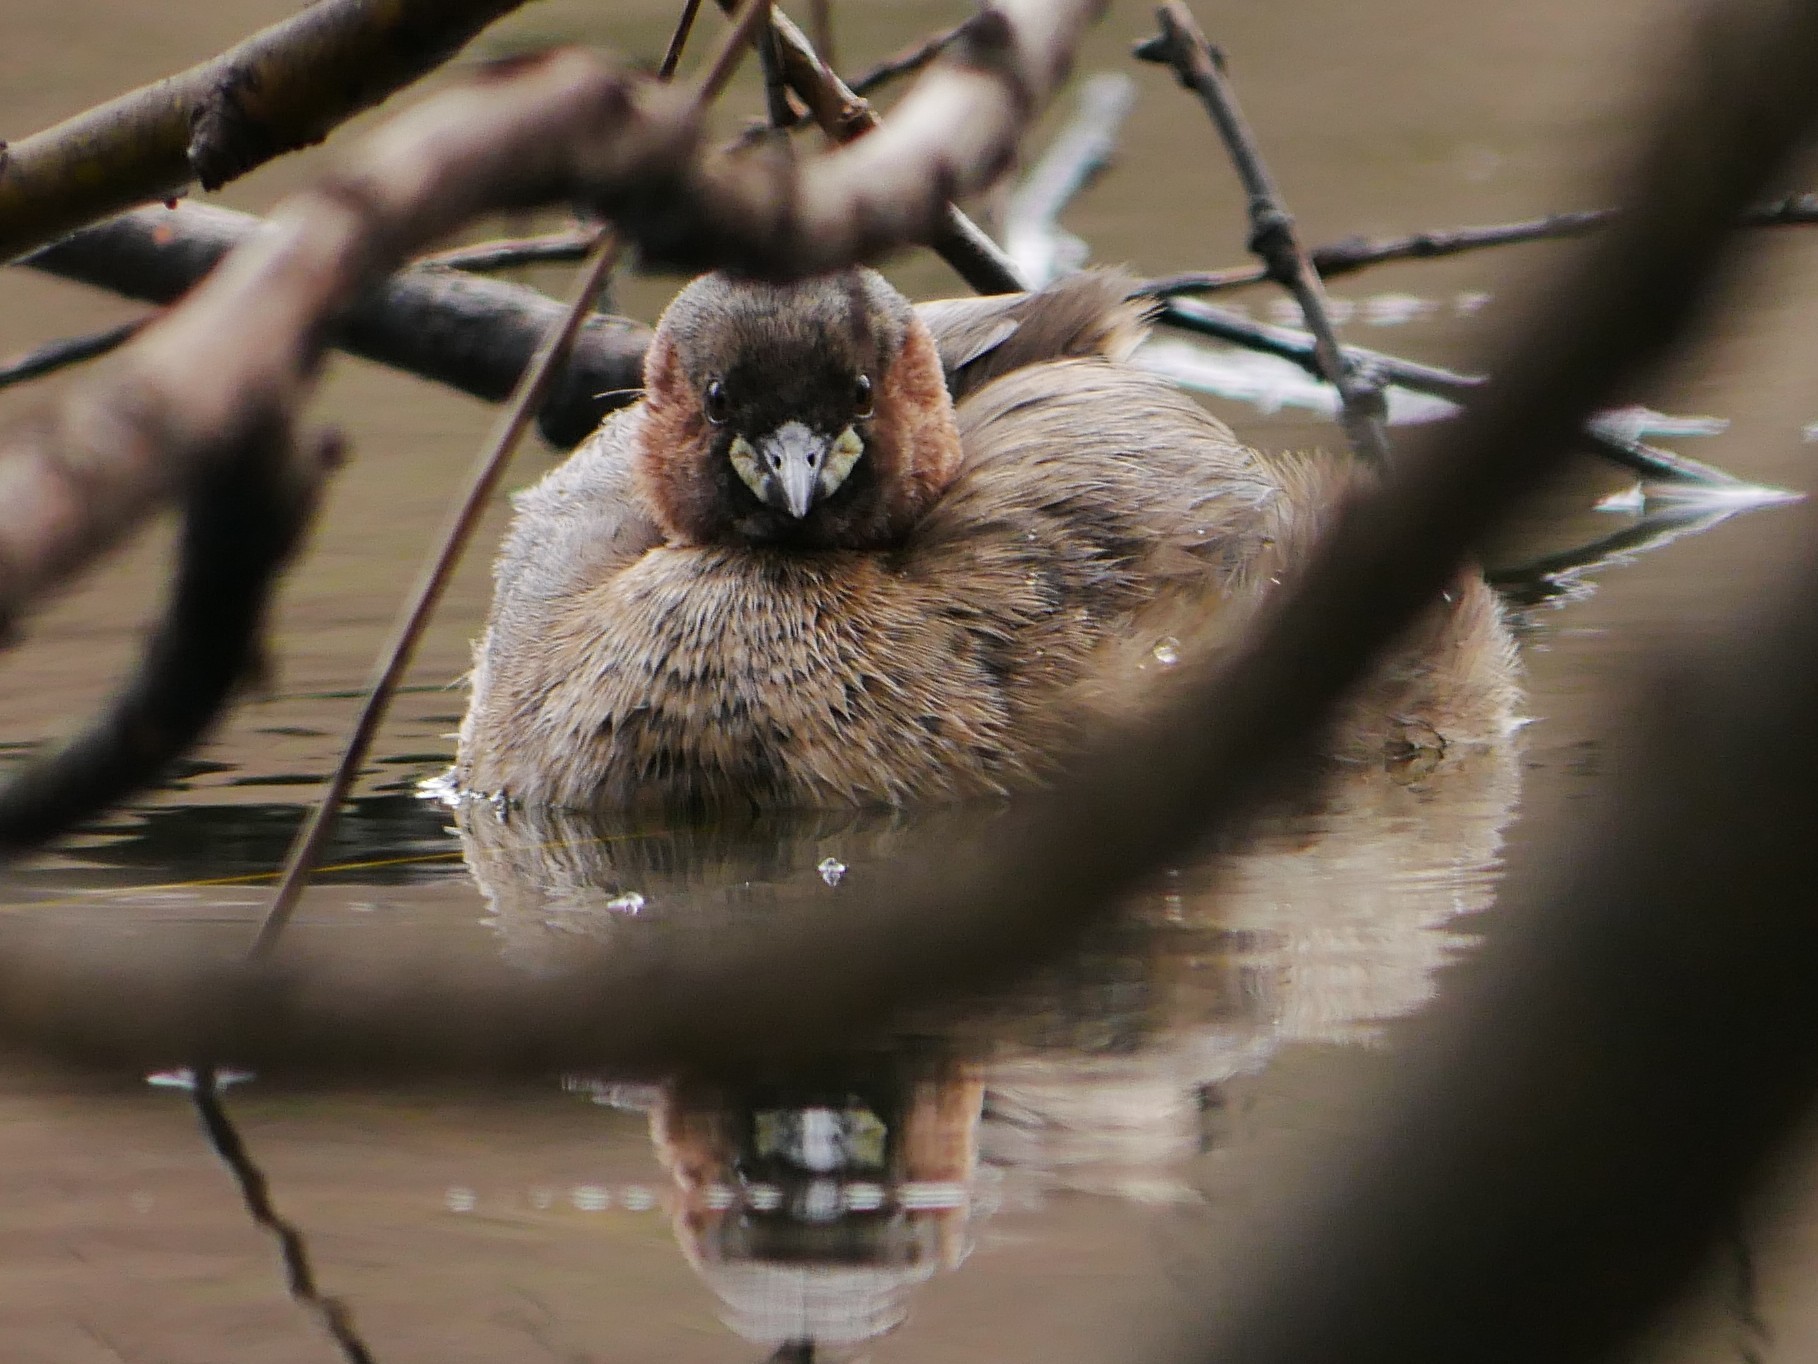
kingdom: Animalia
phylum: Chordata
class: Aves
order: Podicipediformes
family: Podicipedidae
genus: Tachybaptus
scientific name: Tachybaptus ruficollis
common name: Little grebe
